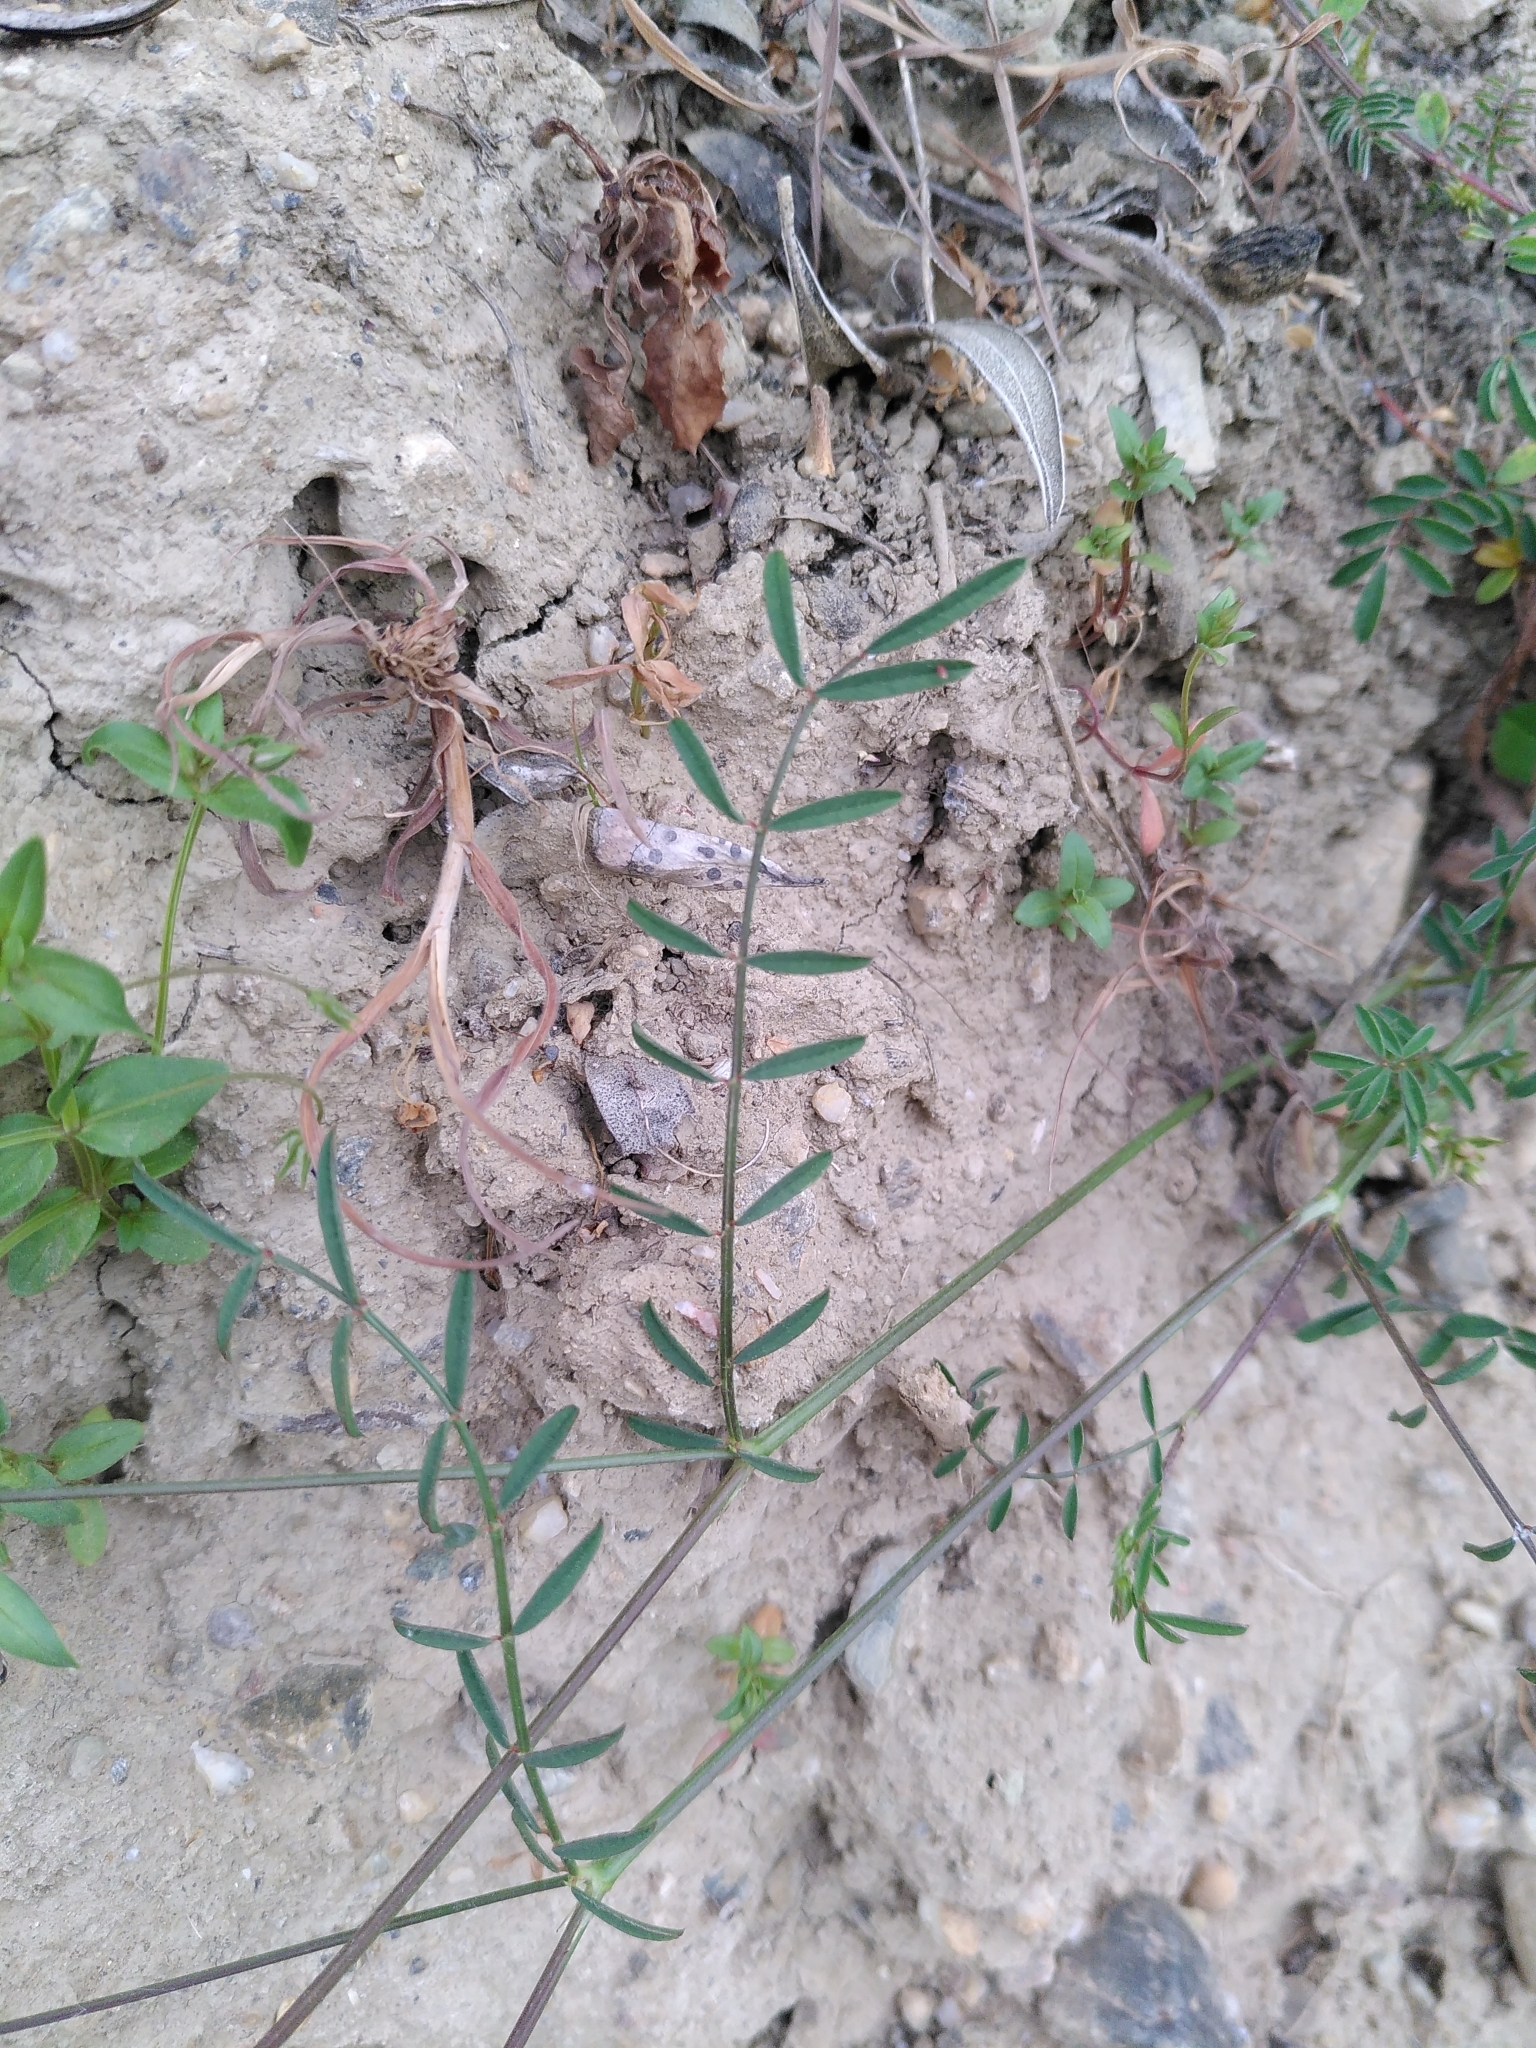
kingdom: Plantae
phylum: Tracheophyta
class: Magnoliopsida
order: Fabales
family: Fabaceae
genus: Onobrychis
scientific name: Onobrychis caput-galli
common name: Cockscomb sainfoin
